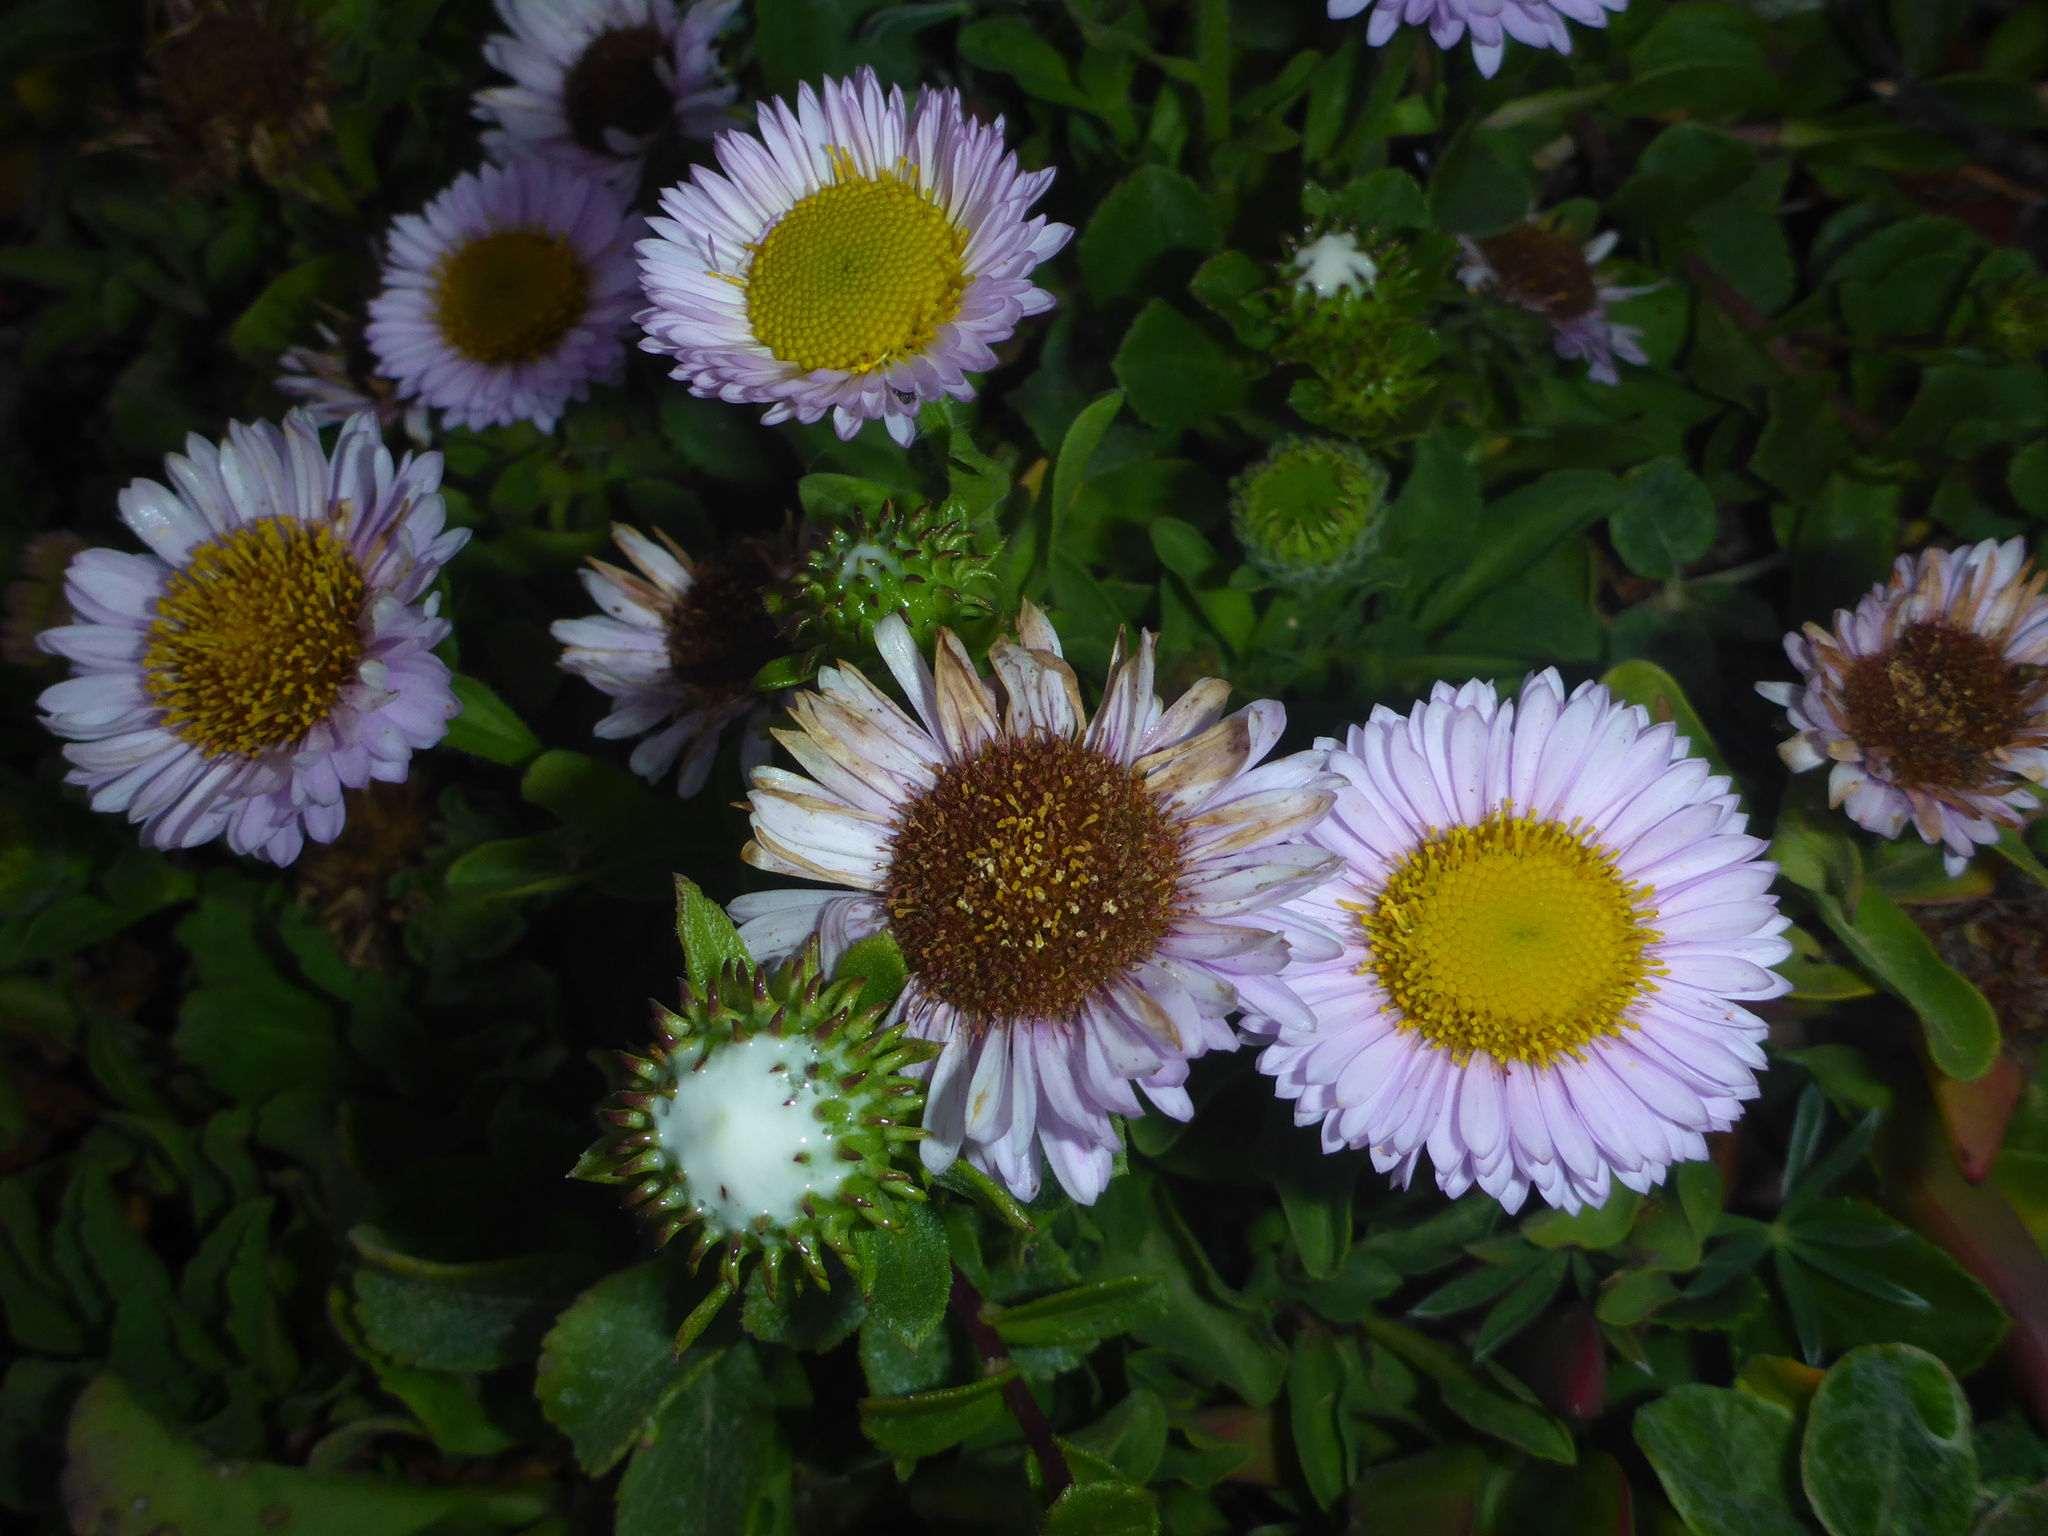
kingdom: Plantae
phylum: Tracheophyta
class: Magnoliopsida
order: Asterales
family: Asteraceae
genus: Erigeron
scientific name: Erigeron glaucus
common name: Seaside daisy
